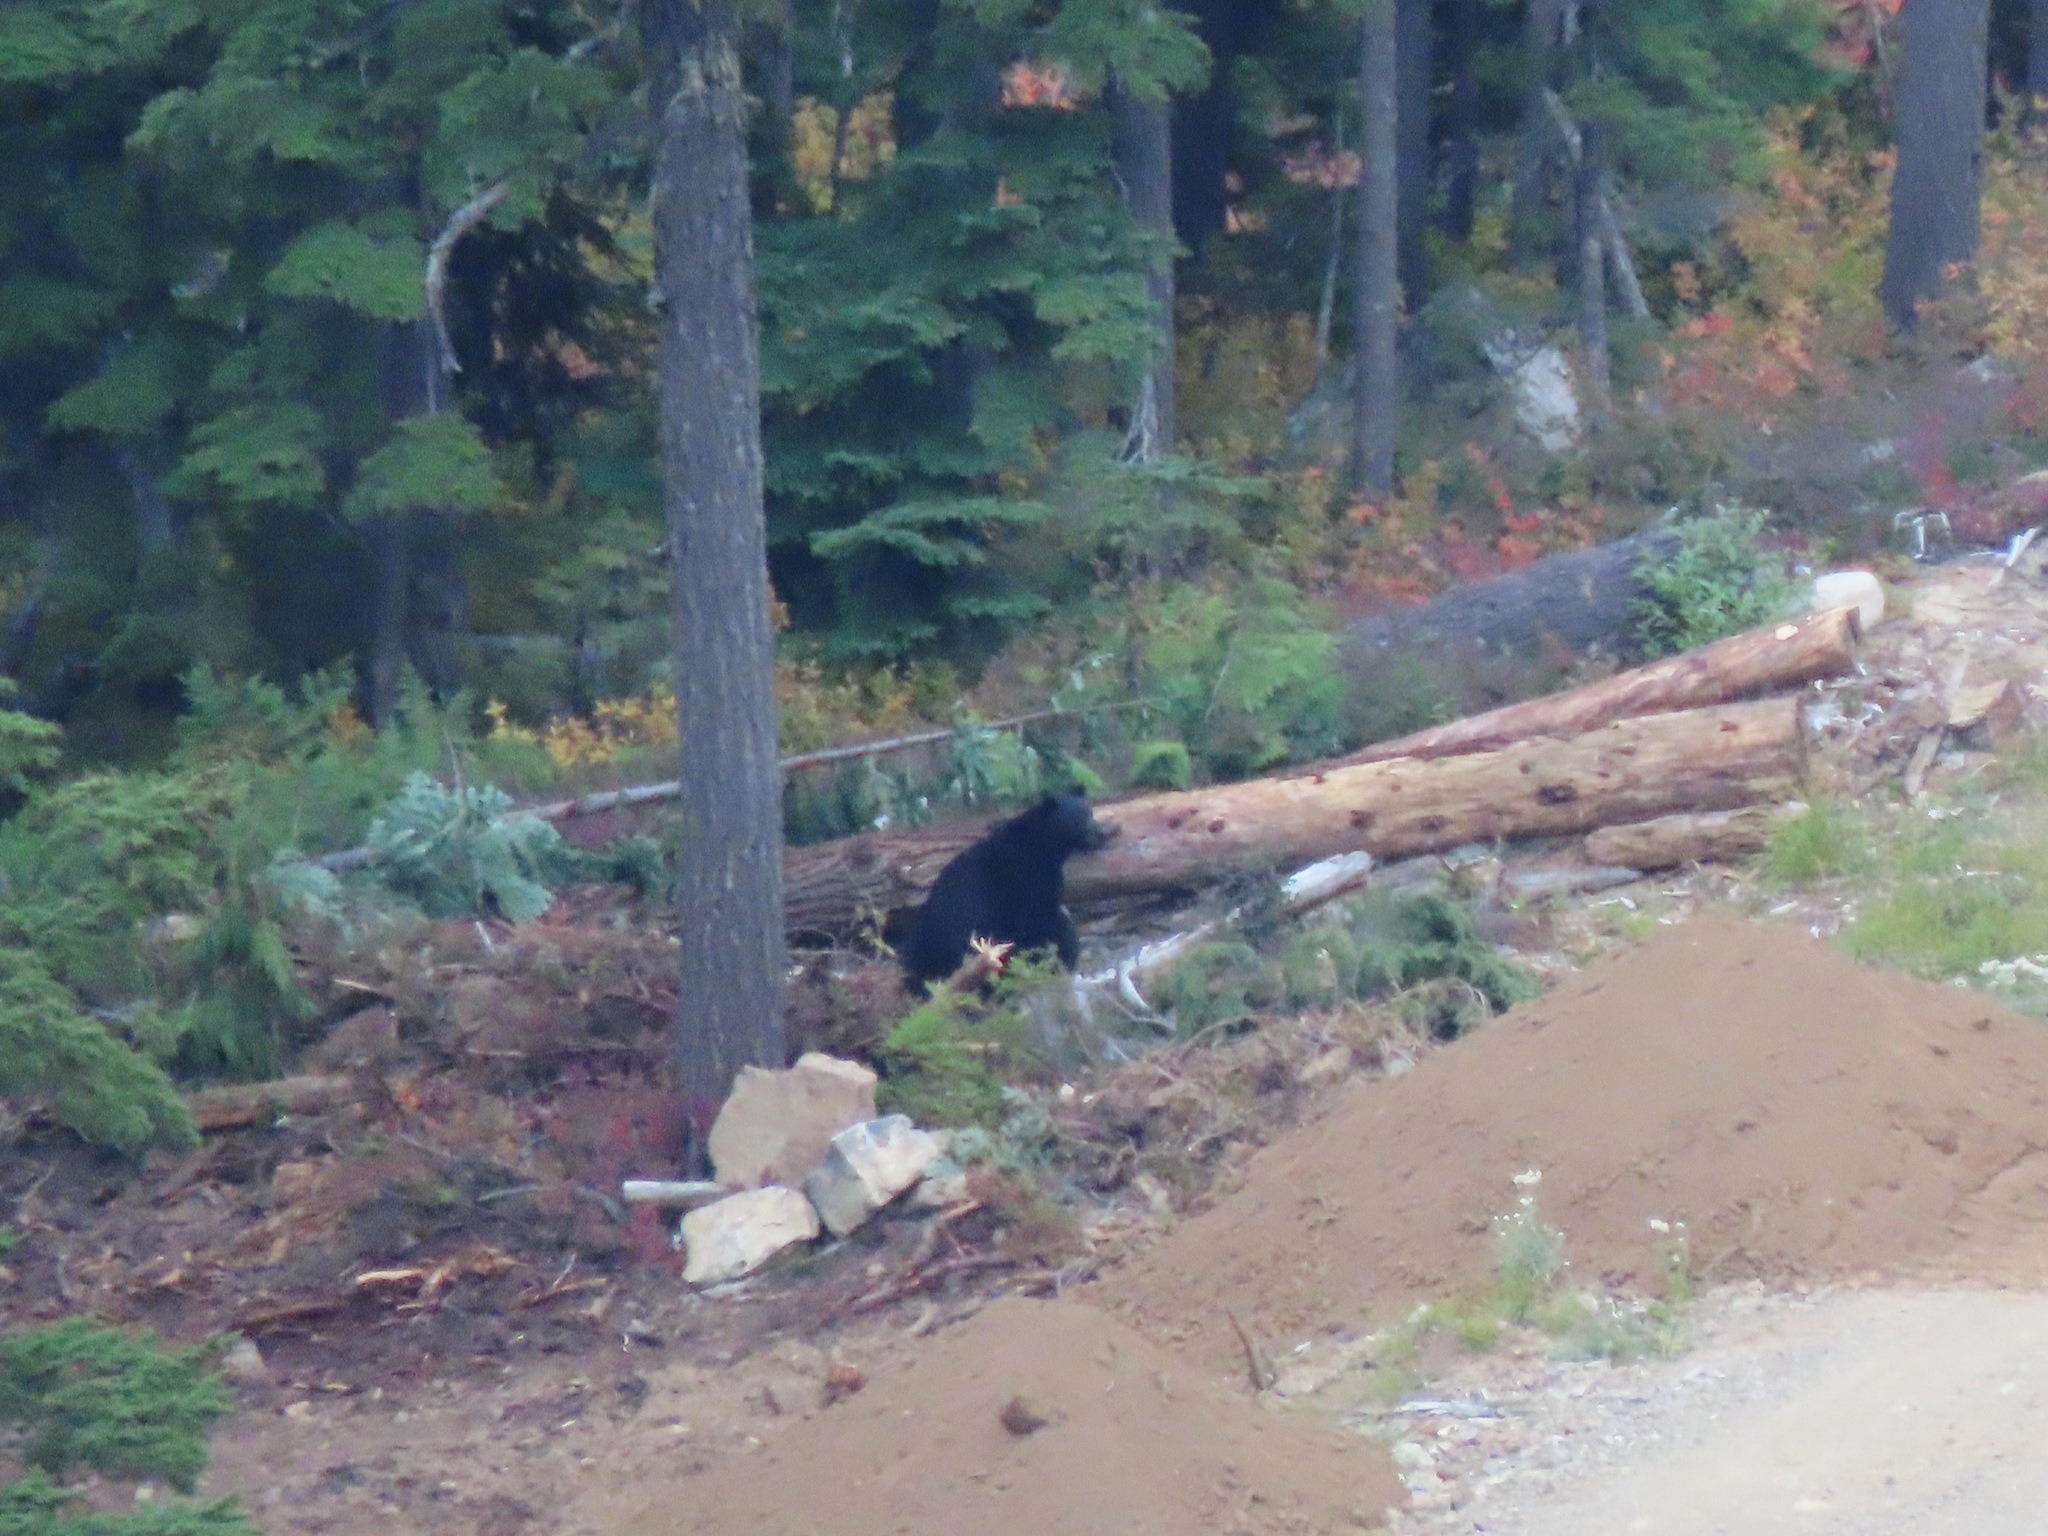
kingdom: Animalia
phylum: Chordata
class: Mammalia
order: Carnivora
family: Ursidae
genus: Ursus
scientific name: Ursus americanus
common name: American black bear
